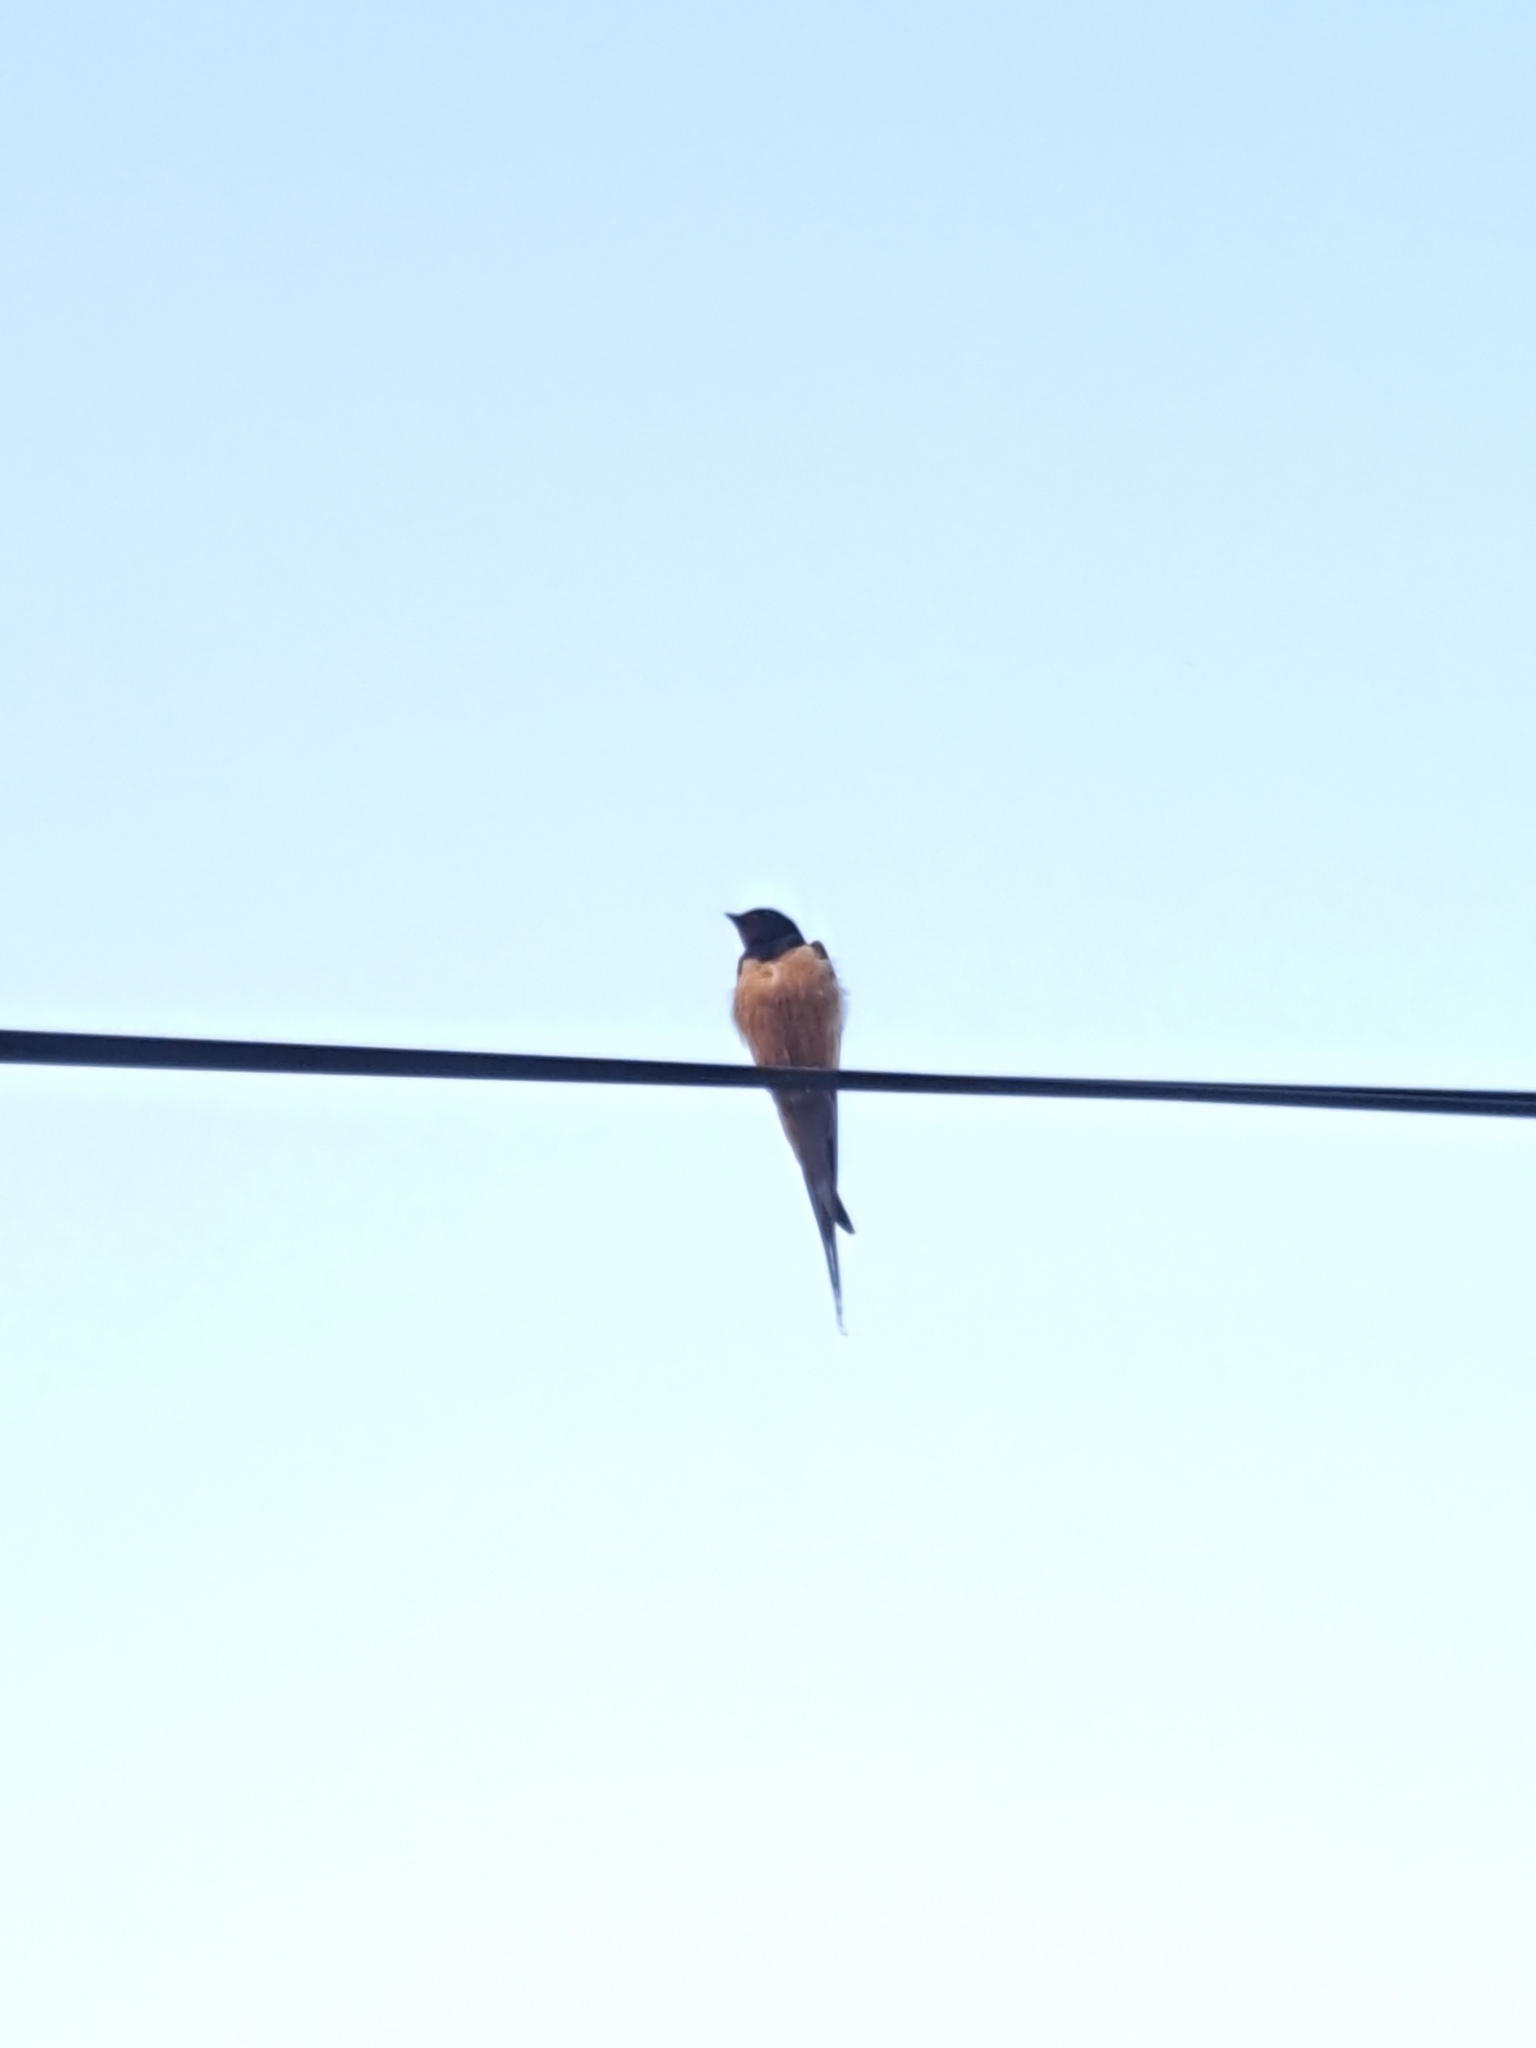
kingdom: Animalia
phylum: Chordata
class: Aves
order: Passeriformes
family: Hirundinidae
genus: Hirundo
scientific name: Hirundo rustica
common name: Barn swallow
